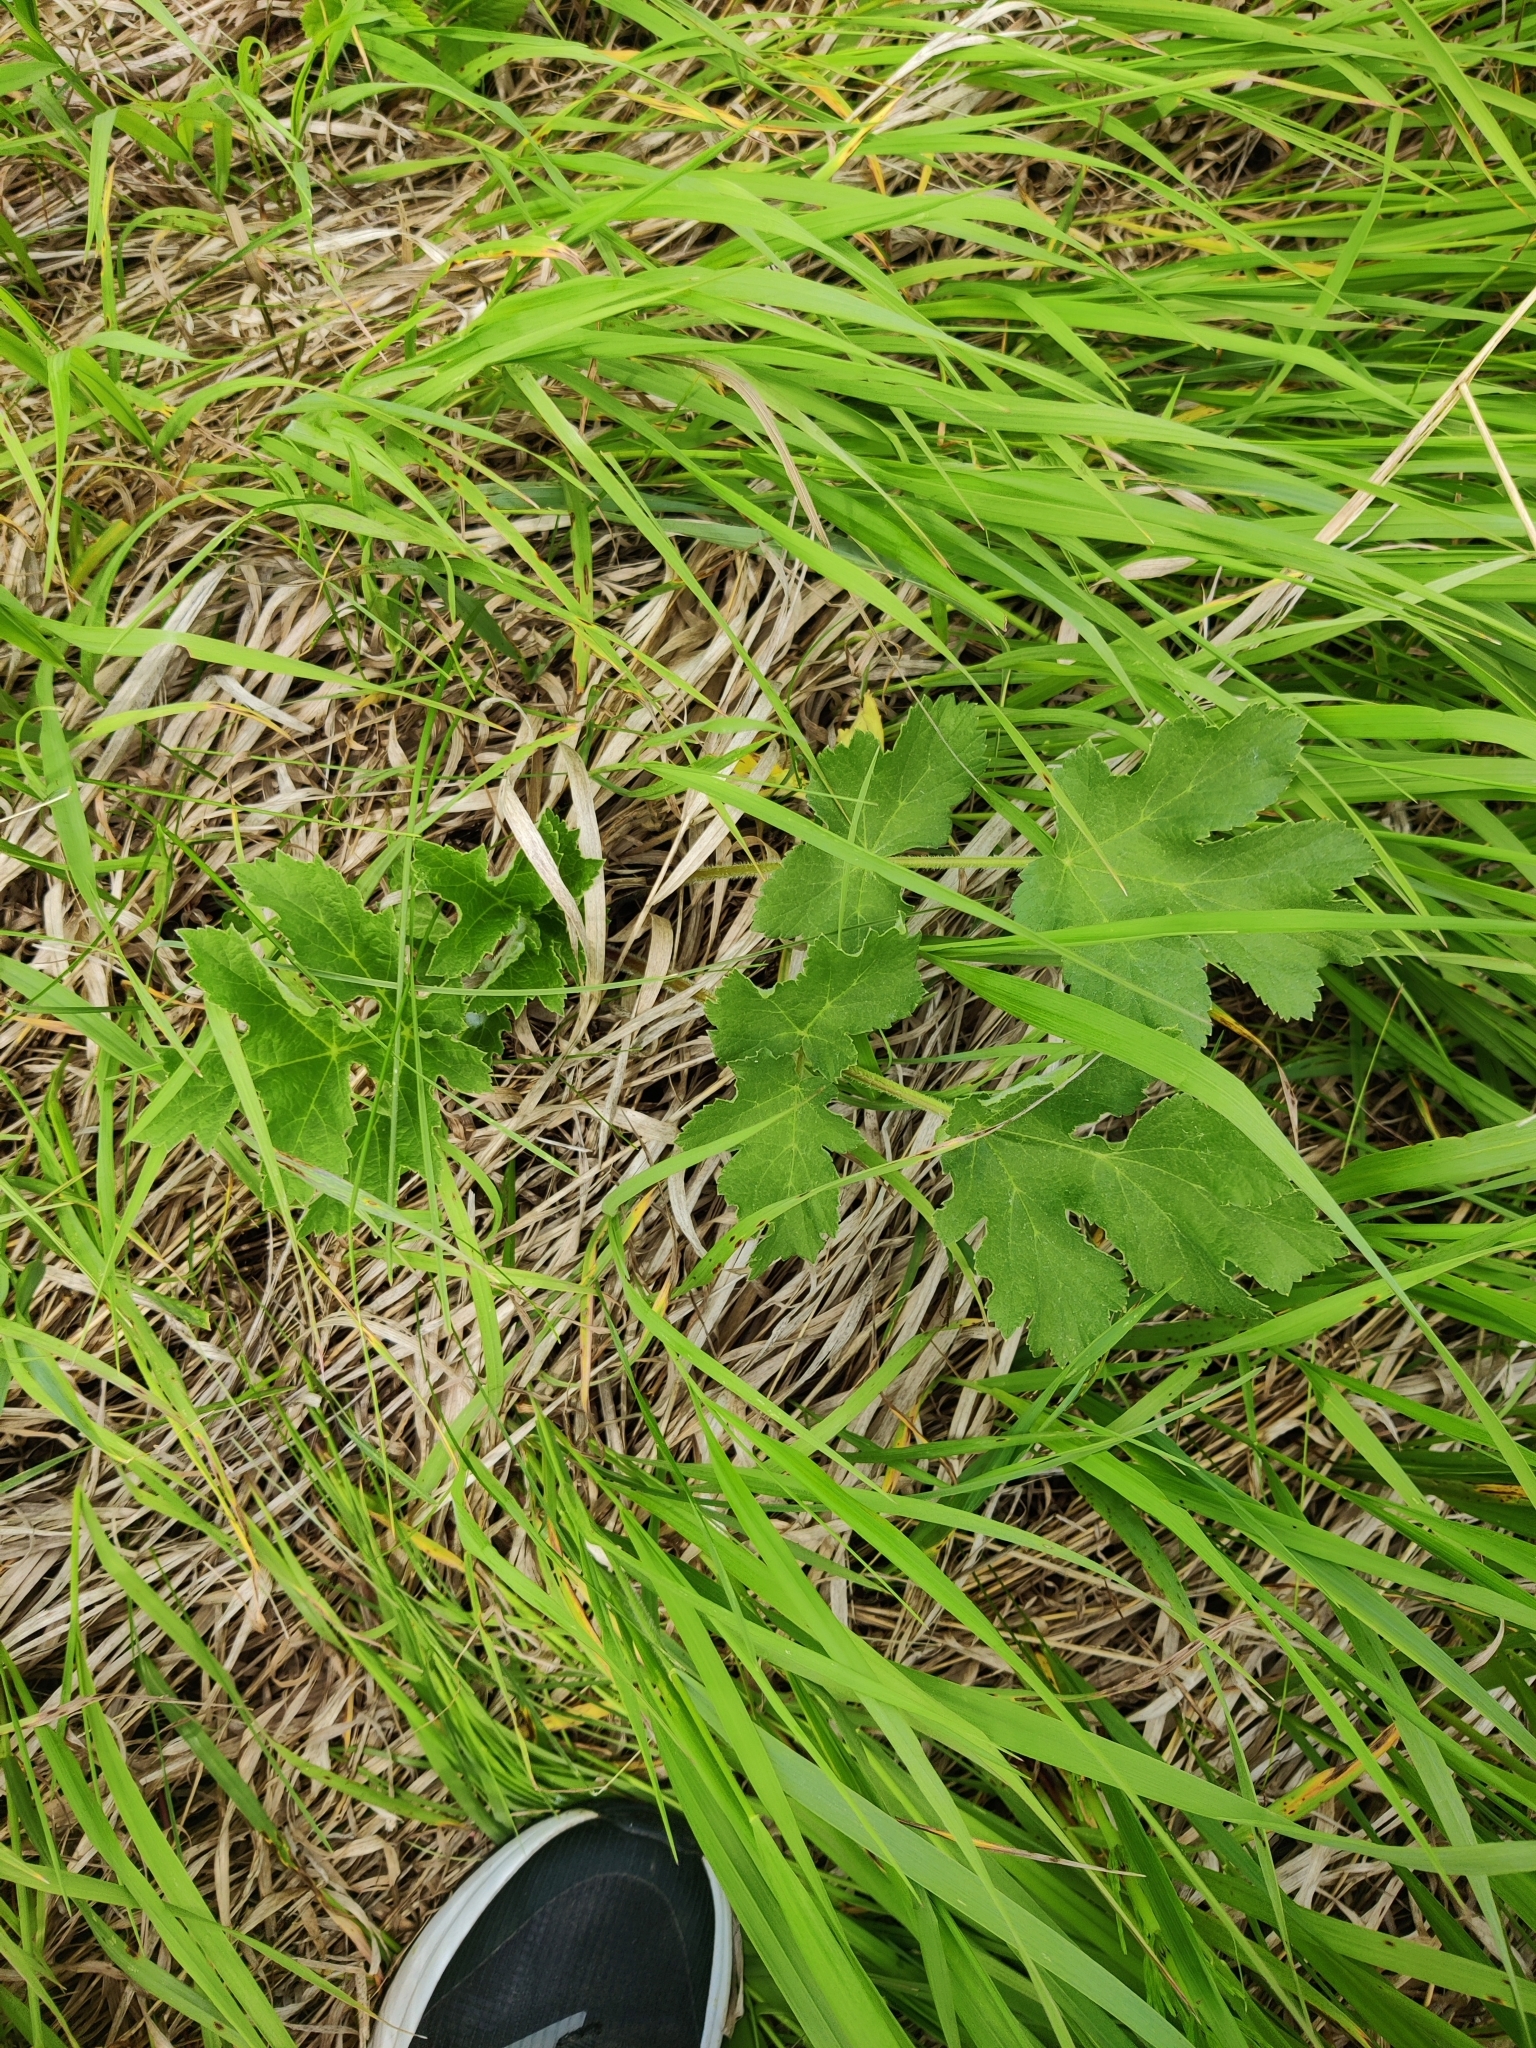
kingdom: Plantae
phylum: Tracheophyta
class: Magnoliopsida
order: Apiales
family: Apiaceae
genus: Heracleum
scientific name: Heracleum sphondylium
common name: Hogweed
